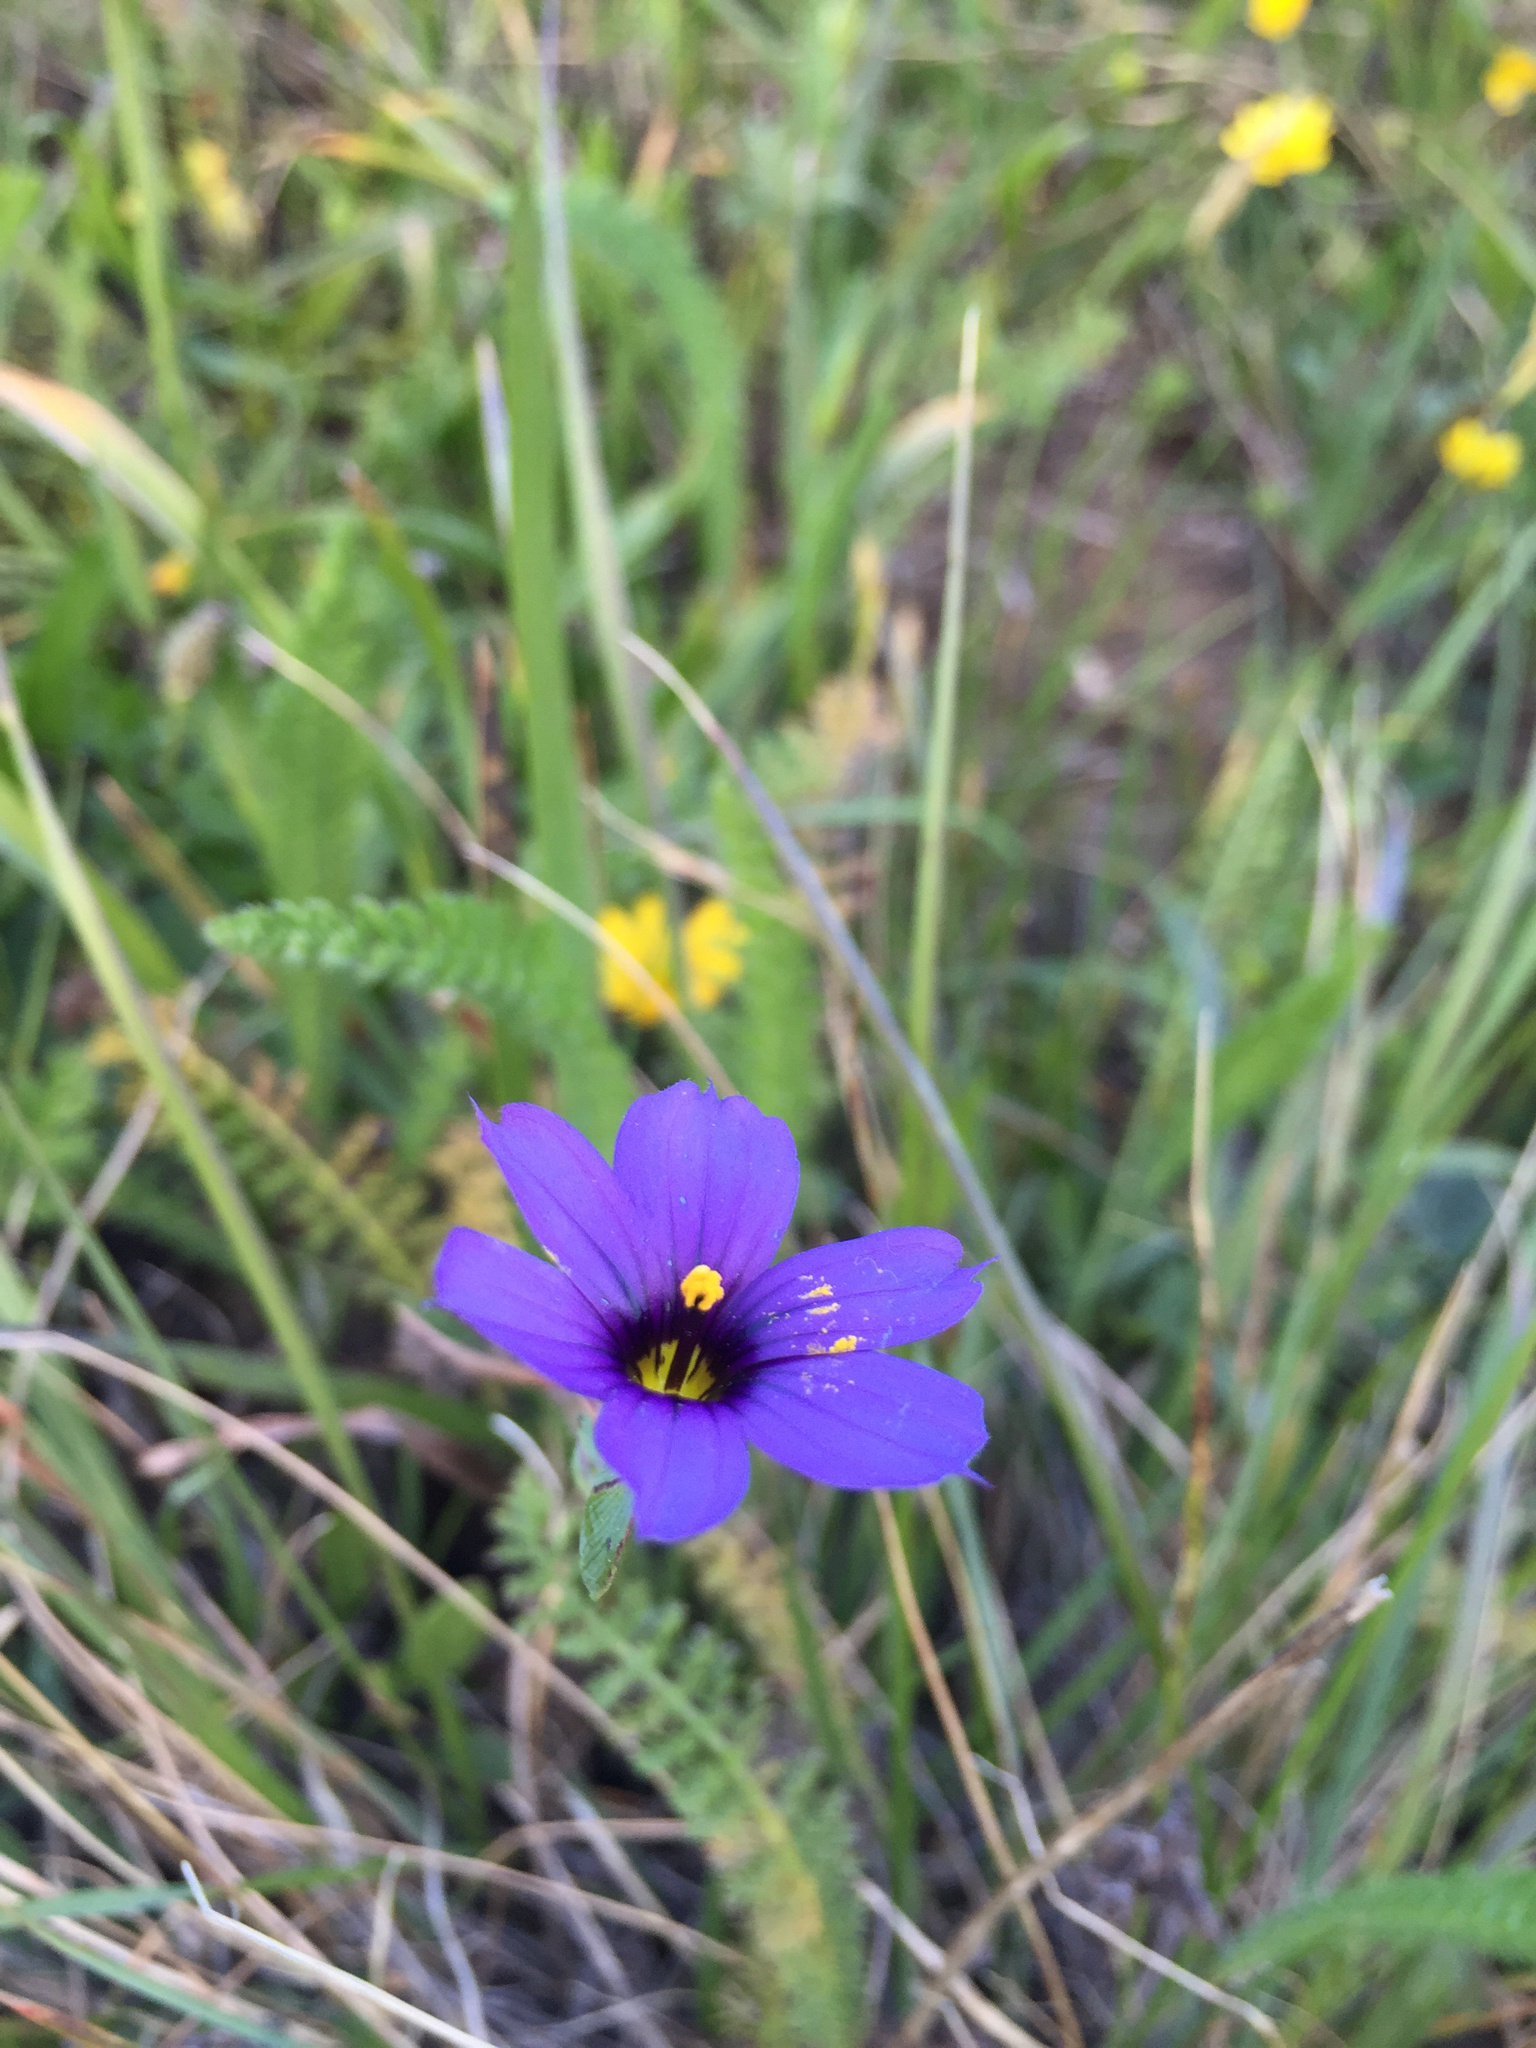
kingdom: Plantae
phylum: Tracheophyta
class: Liliopsida
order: Asparagales
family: Iridaceae
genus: Sisyrinchium
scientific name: Sisyrinchium bellum
